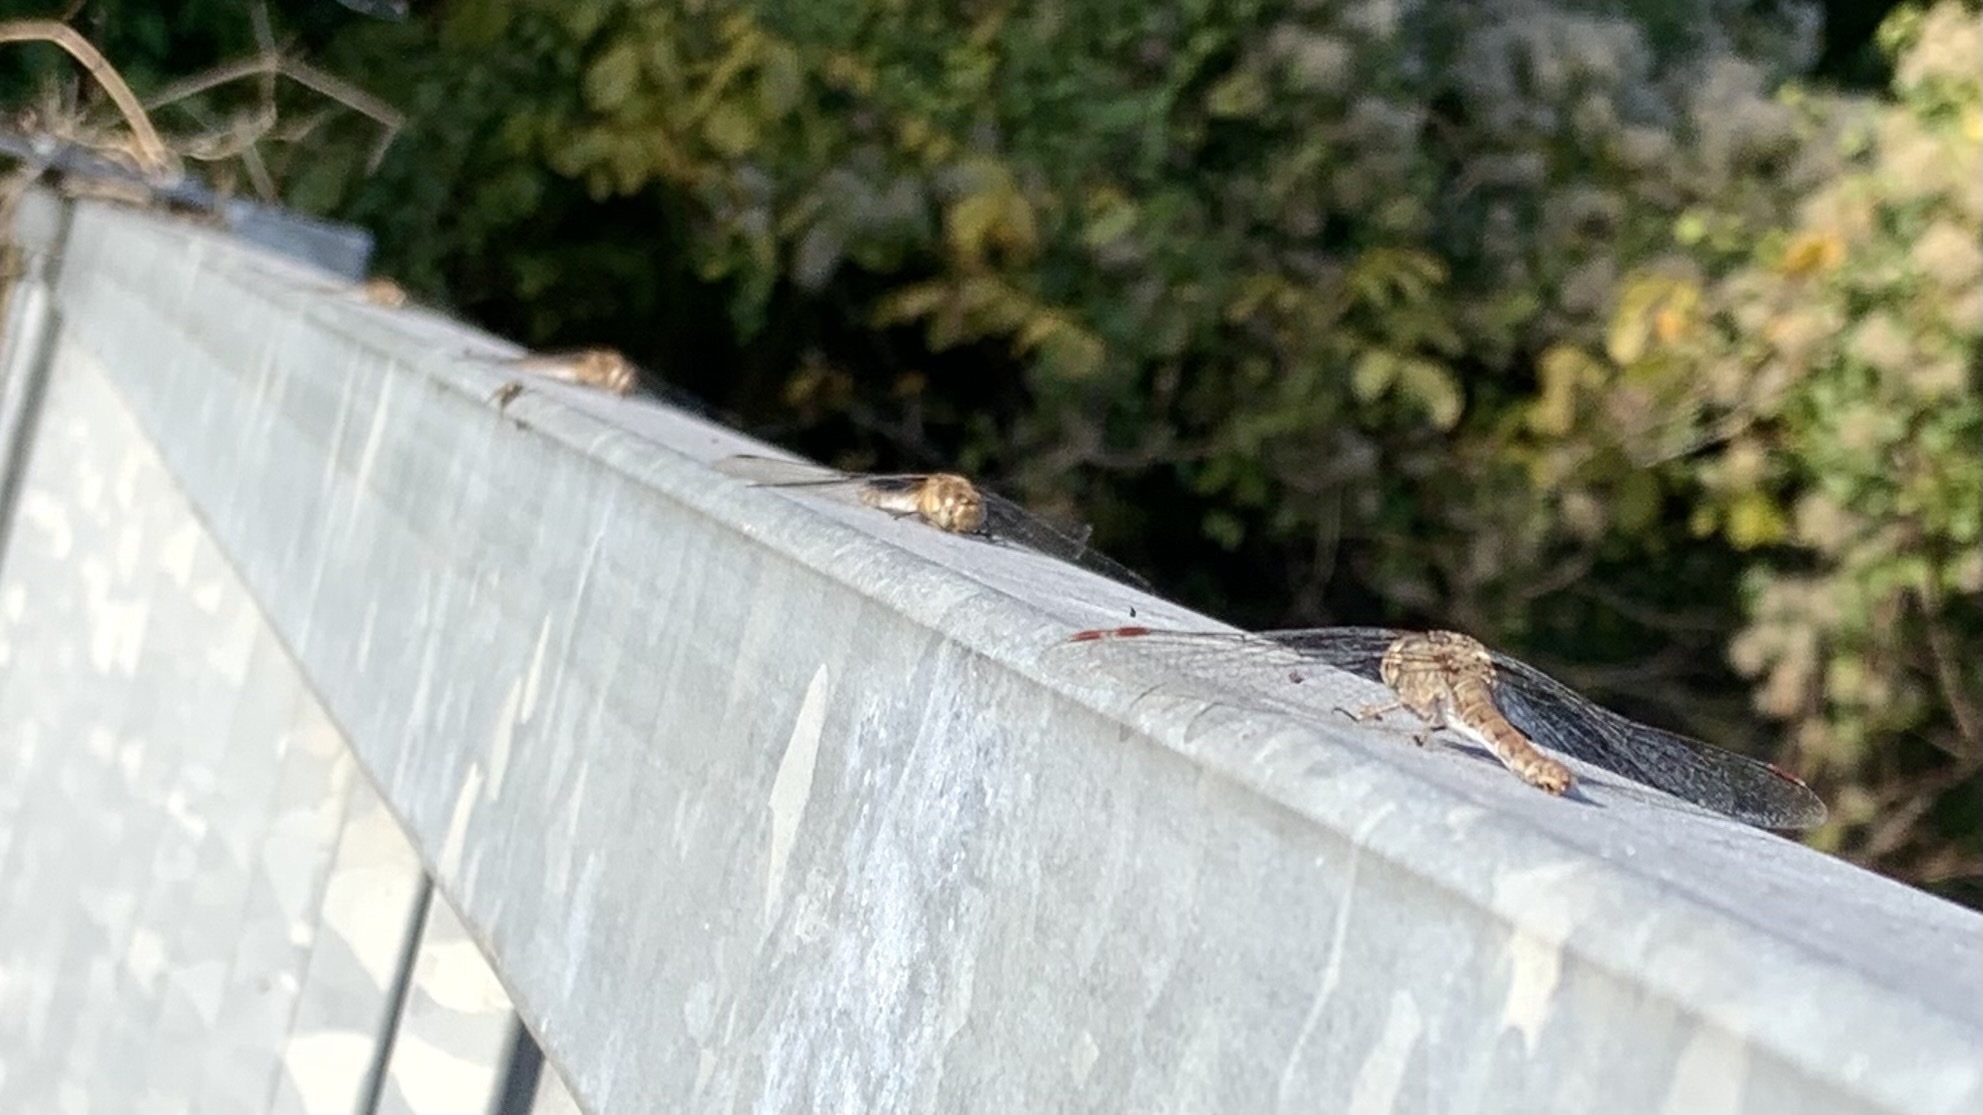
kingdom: Animalia
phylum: Arthropoda
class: Insecta
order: Odonata
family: Libellulidae
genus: Sympetrum
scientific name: Sympetrum striolatum
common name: Common darter
